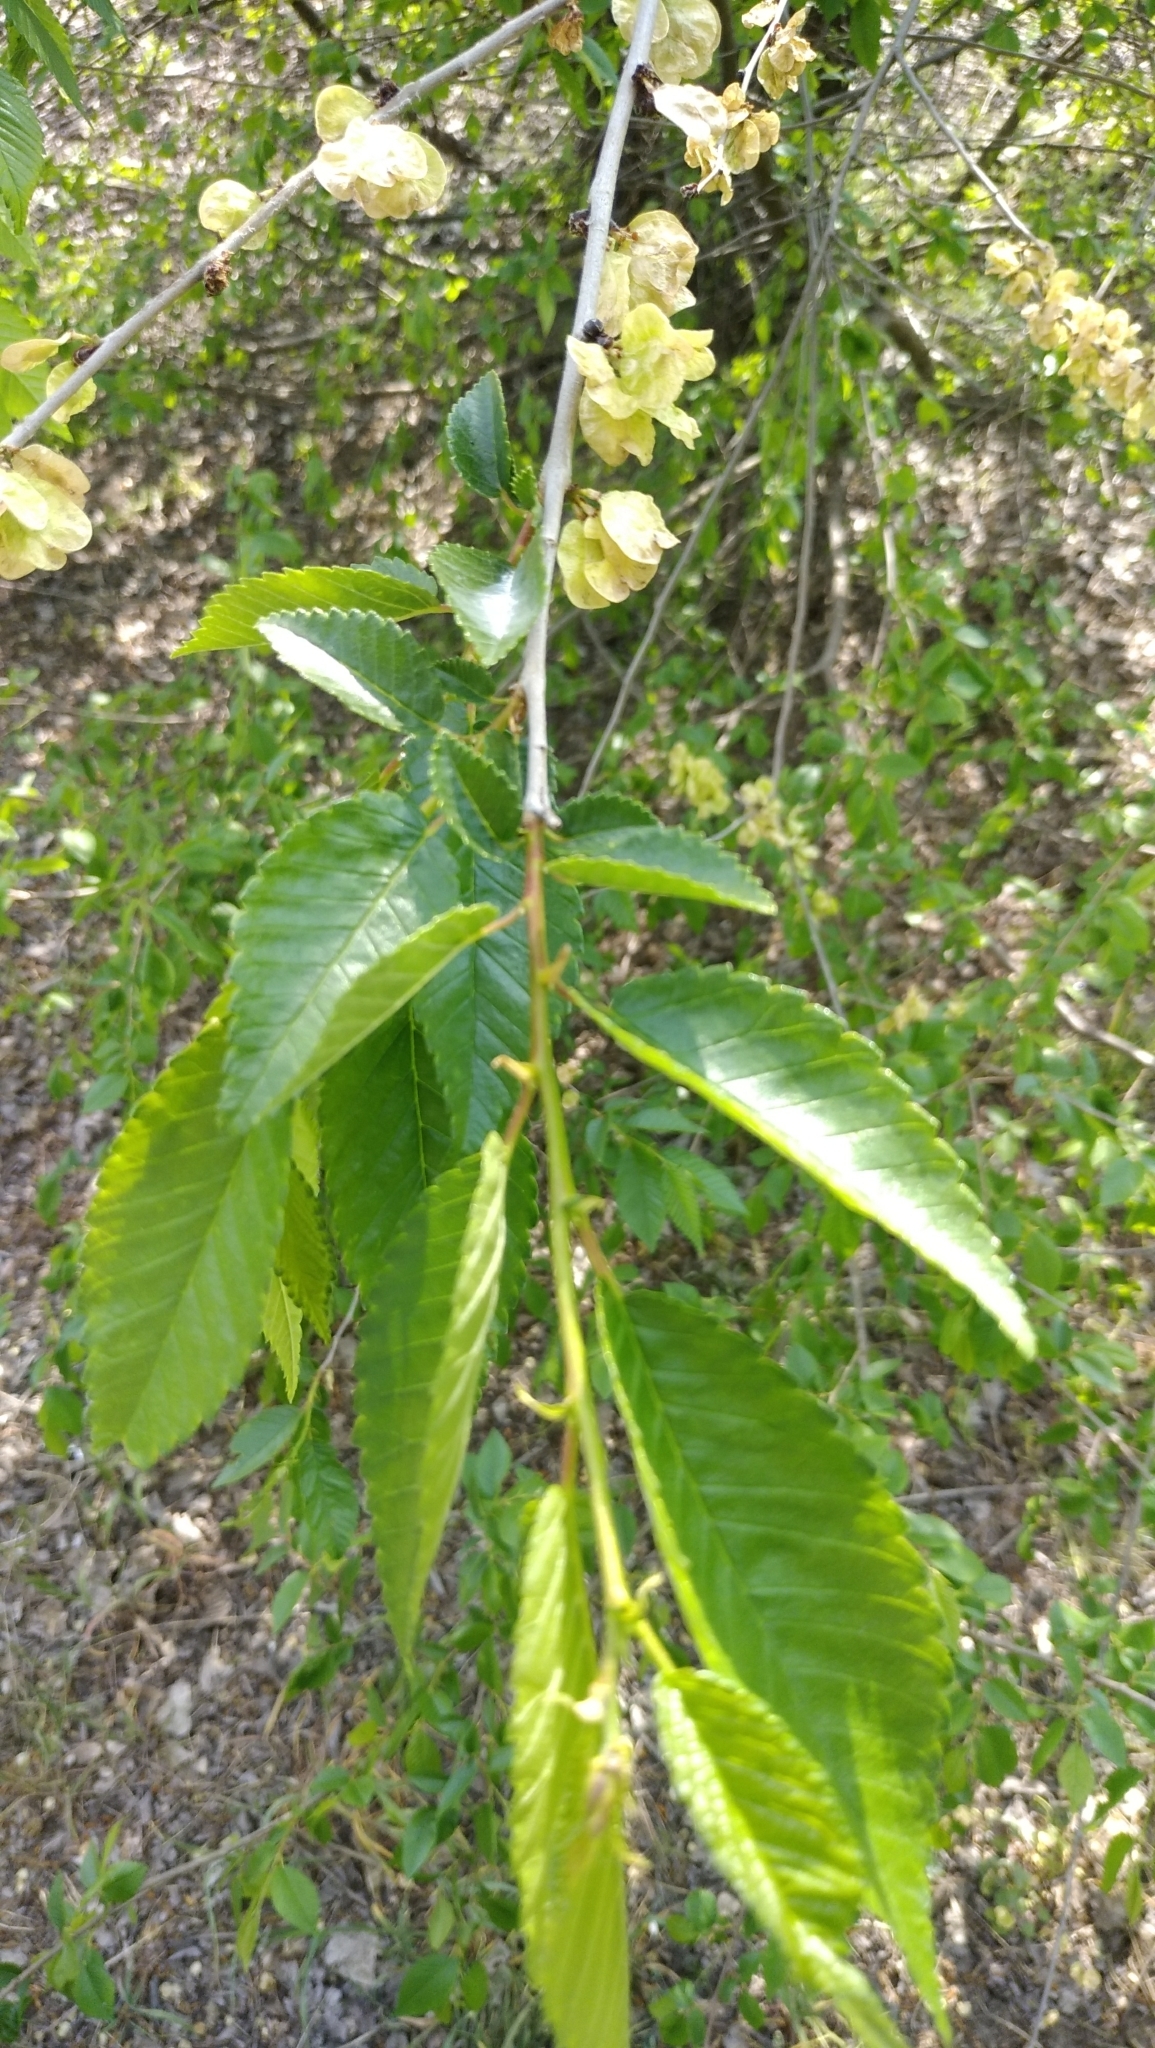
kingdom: Plantae
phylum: Tracheophyta
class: Magnoliopsida
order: Rosales
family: Ulmaceae
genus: Ulmus
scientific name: Ulmus pumila
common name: Siberian elm
